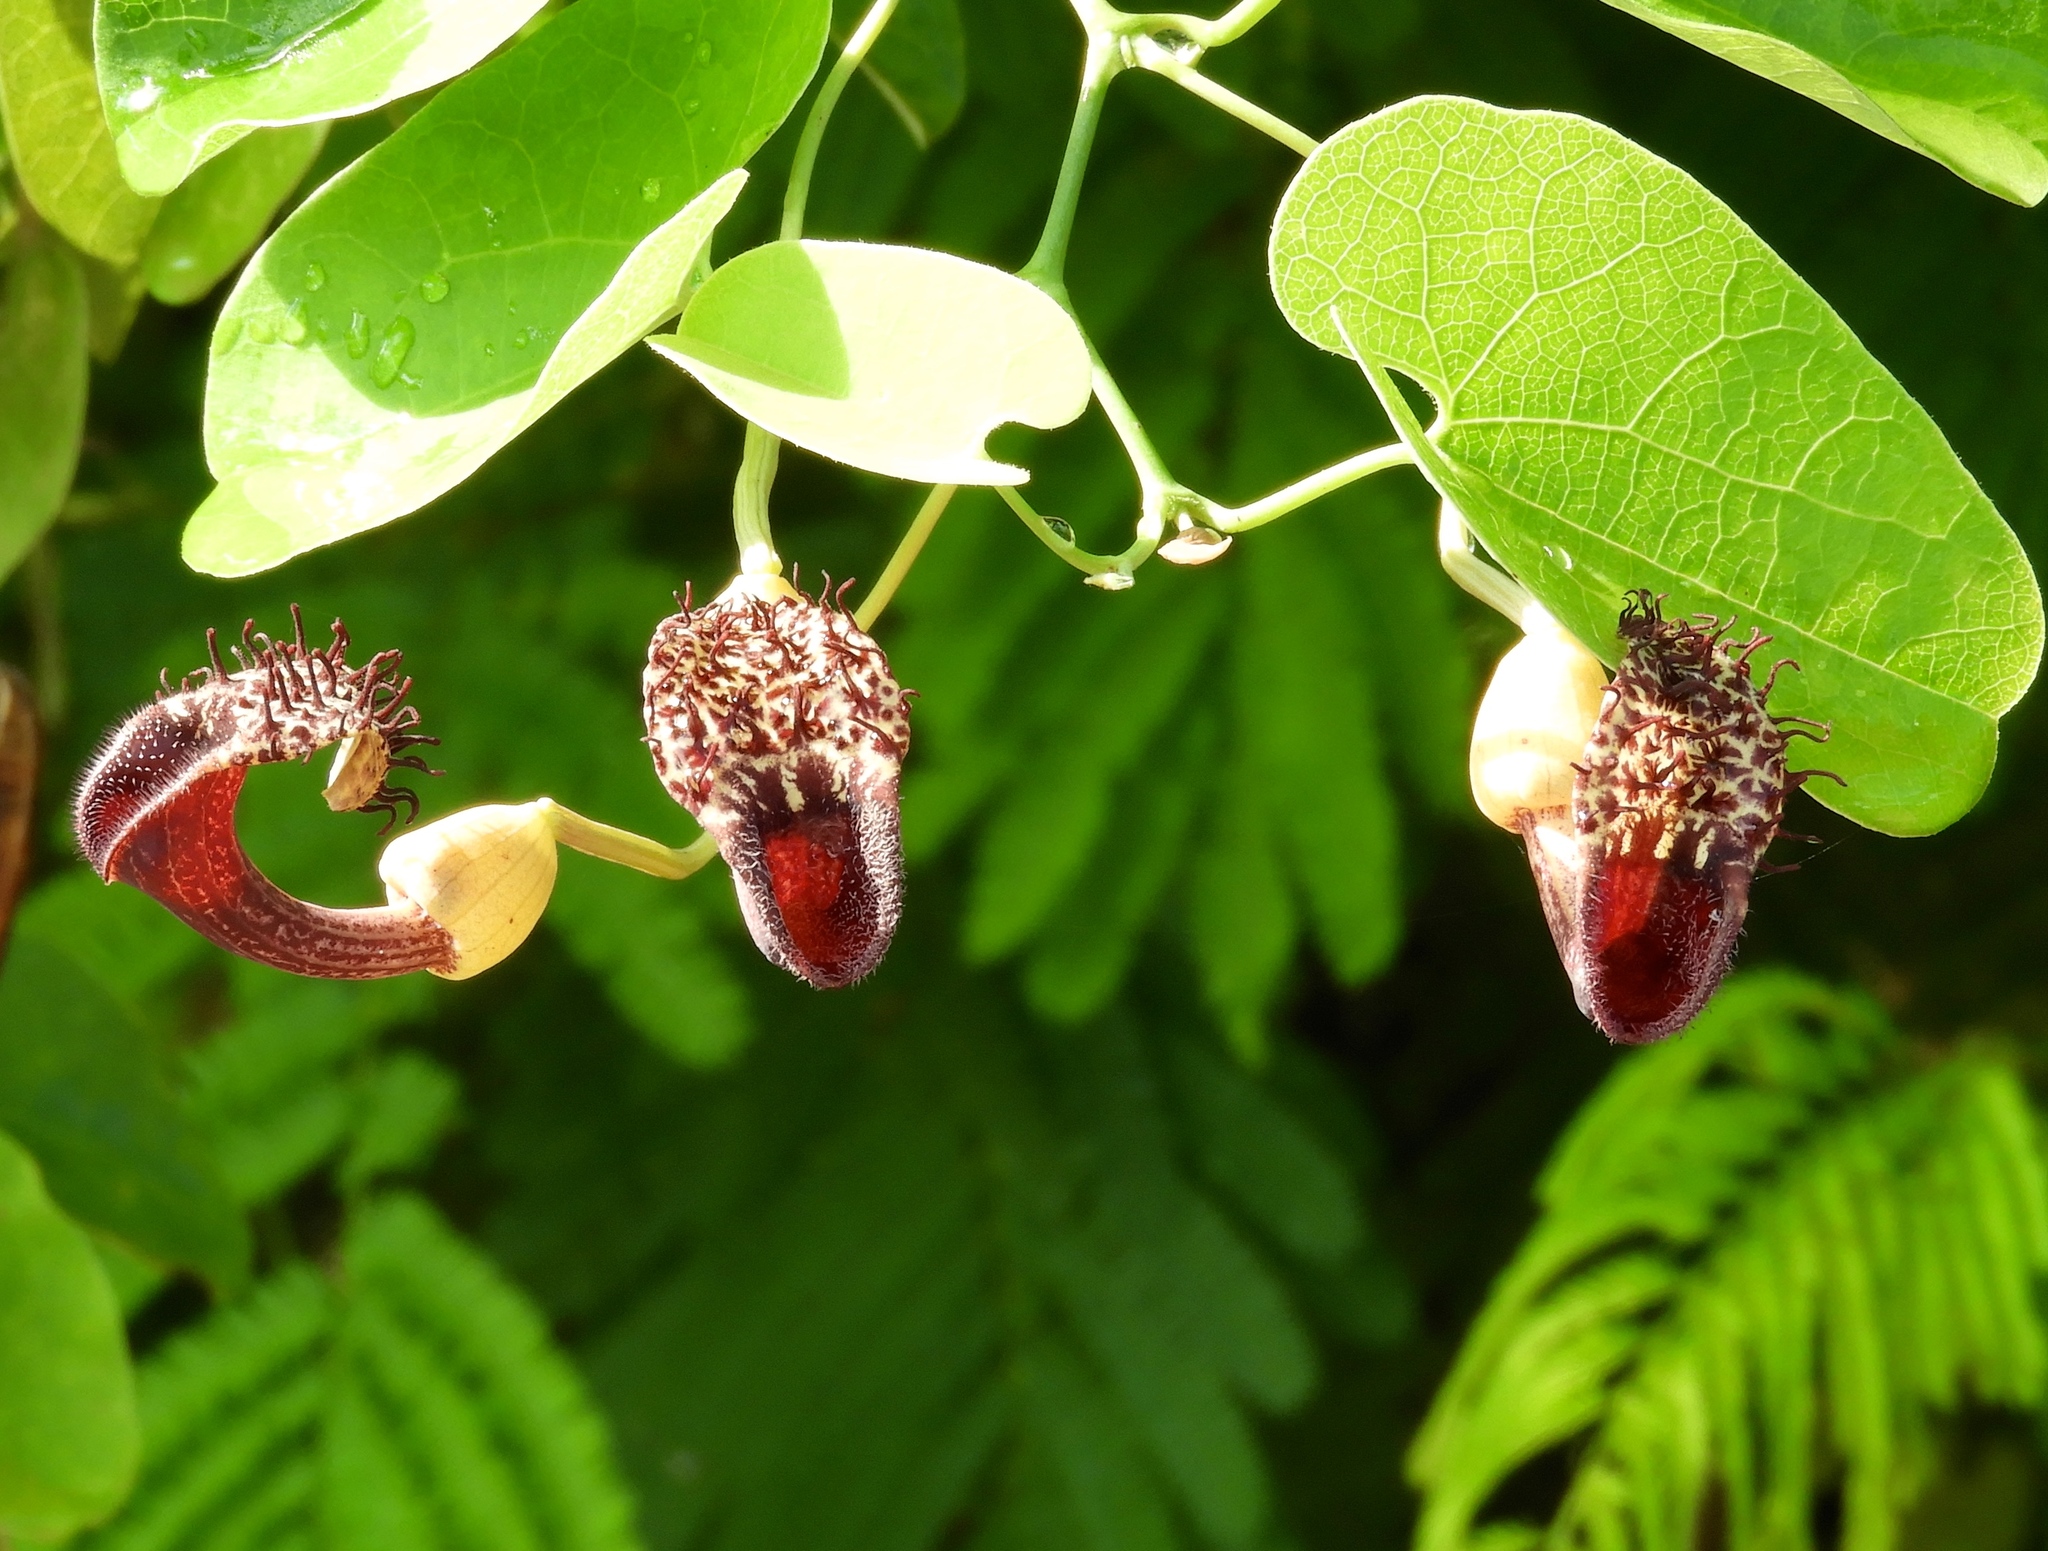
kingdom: Plantae
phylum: Tracheophyta
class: Magnoliopsida
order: Piperales
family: Aristolochiaceae
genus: Aristolochia
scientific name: Aristolochia taliscana
